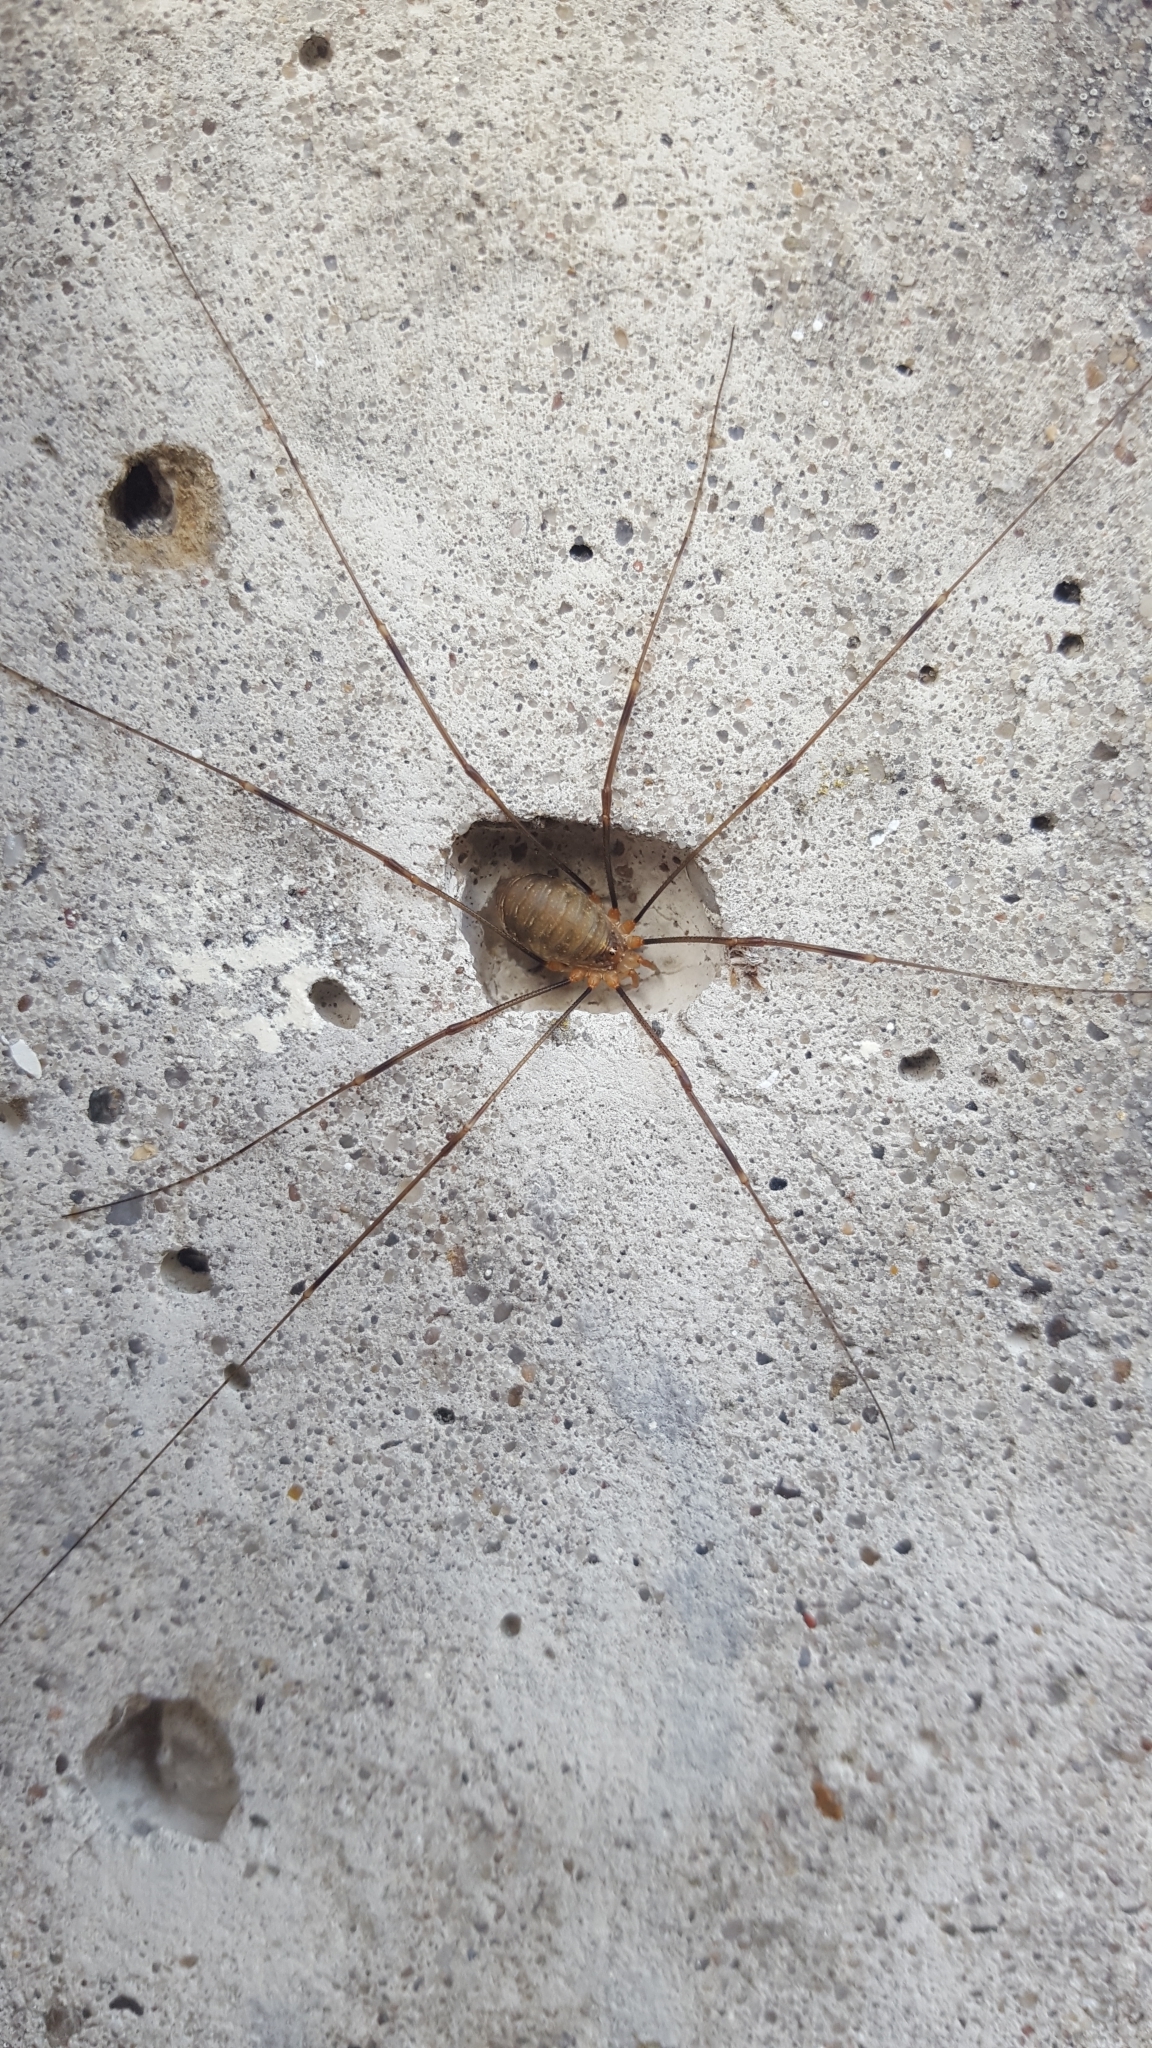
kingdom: Animalia
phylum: Arthropoda
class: Arachnida
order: Opiliones
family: Phalangiidae
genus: Opilio
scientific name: Opilio canestrinii
